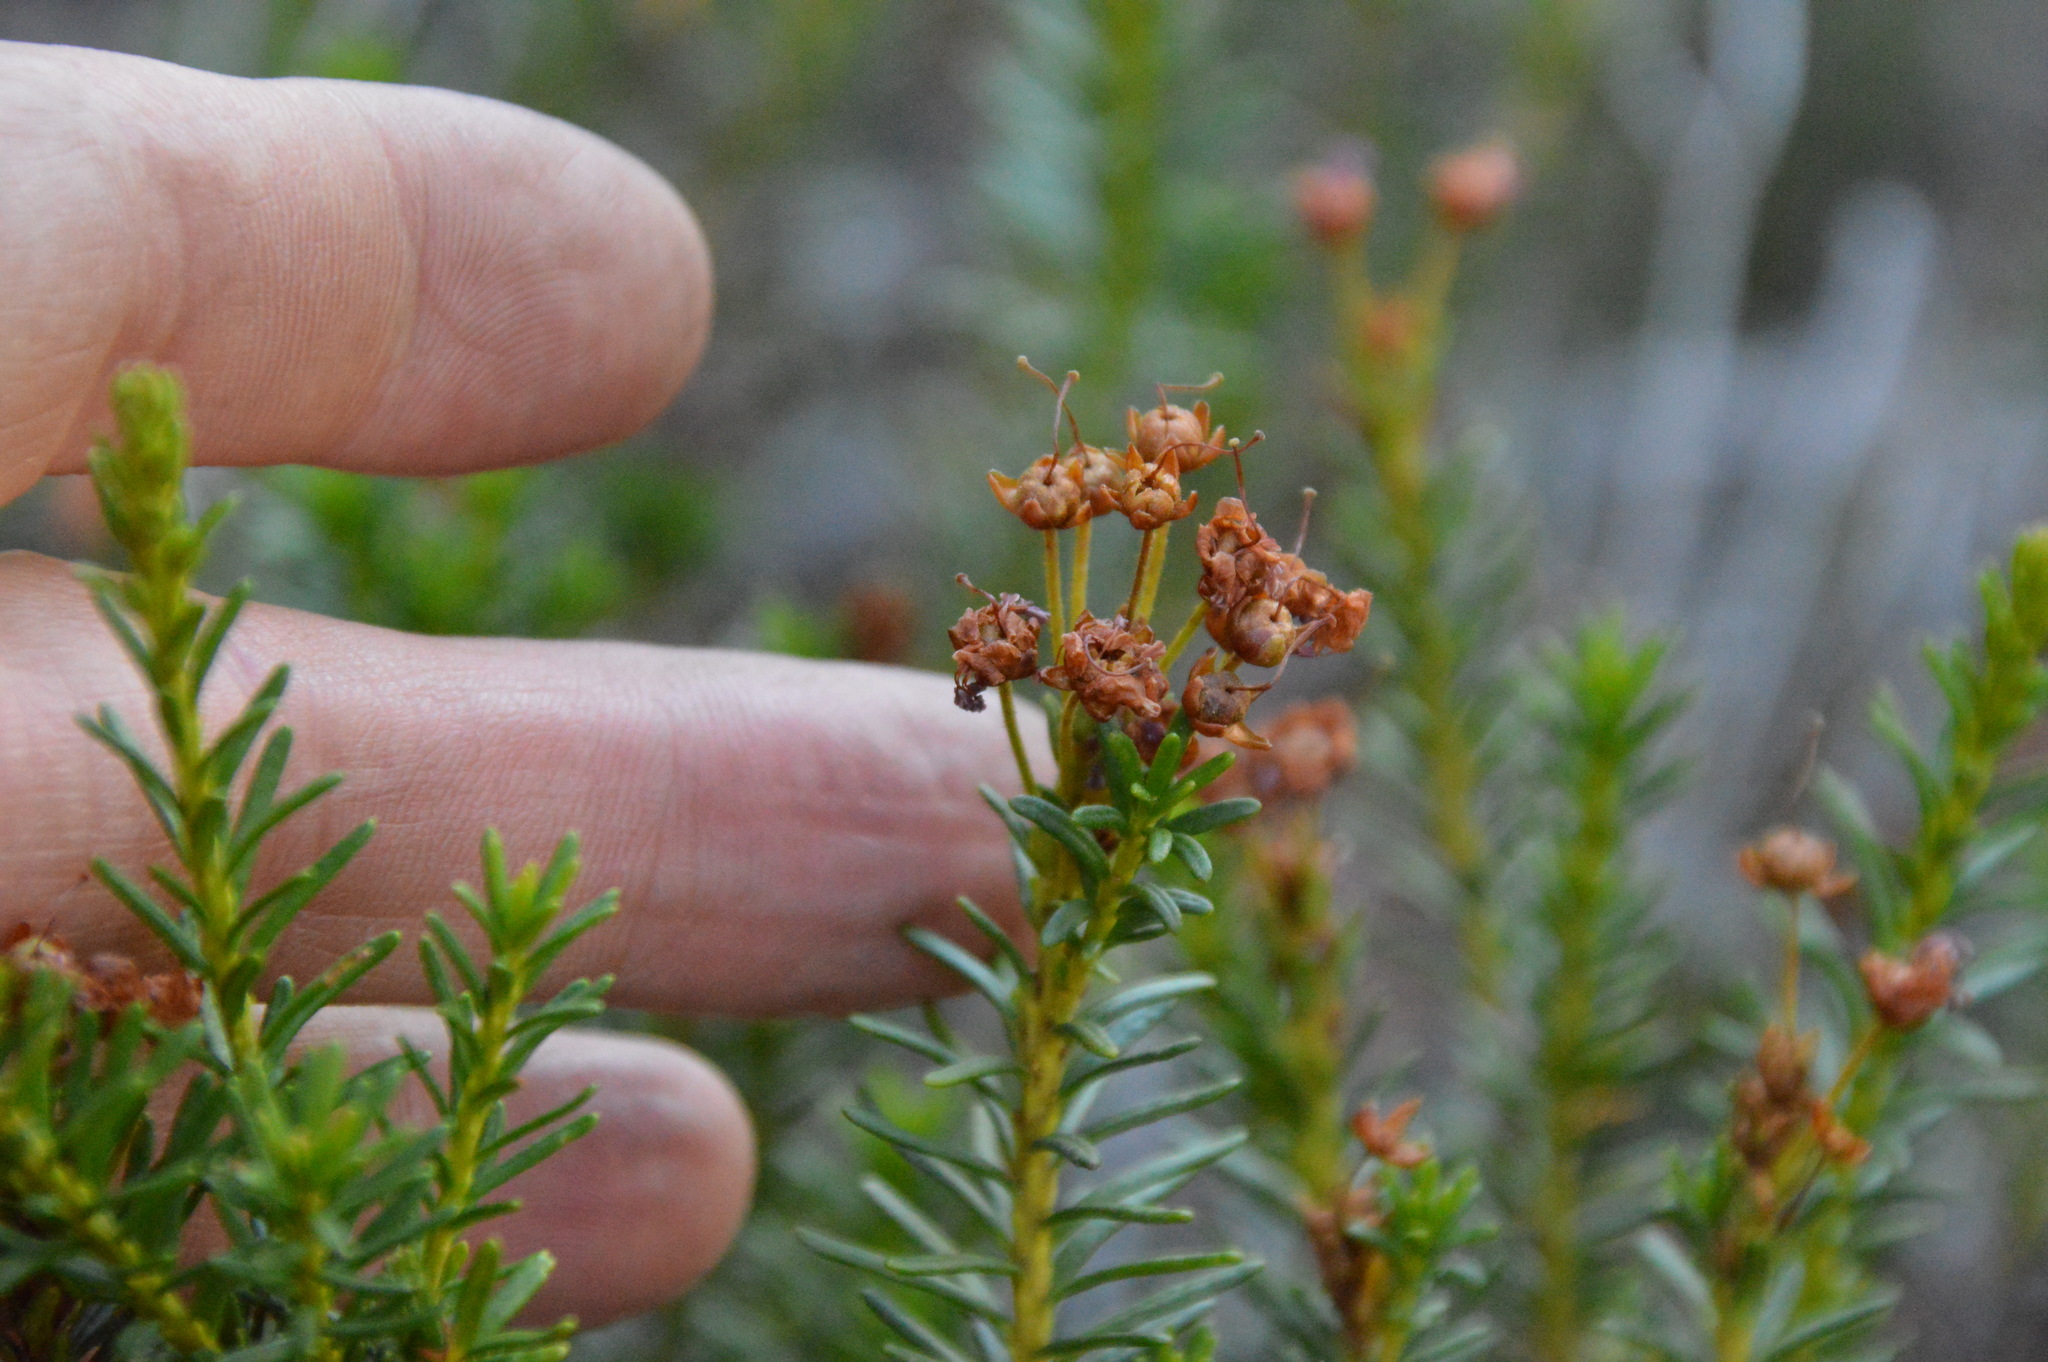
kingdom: Plantae
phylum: Tracheophyta
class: Magnoliopsida
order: Ericales
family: Ericaceae
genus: Phyllodoce
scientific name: Phyllodoce breweri
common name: Brewer's mountain-heather
